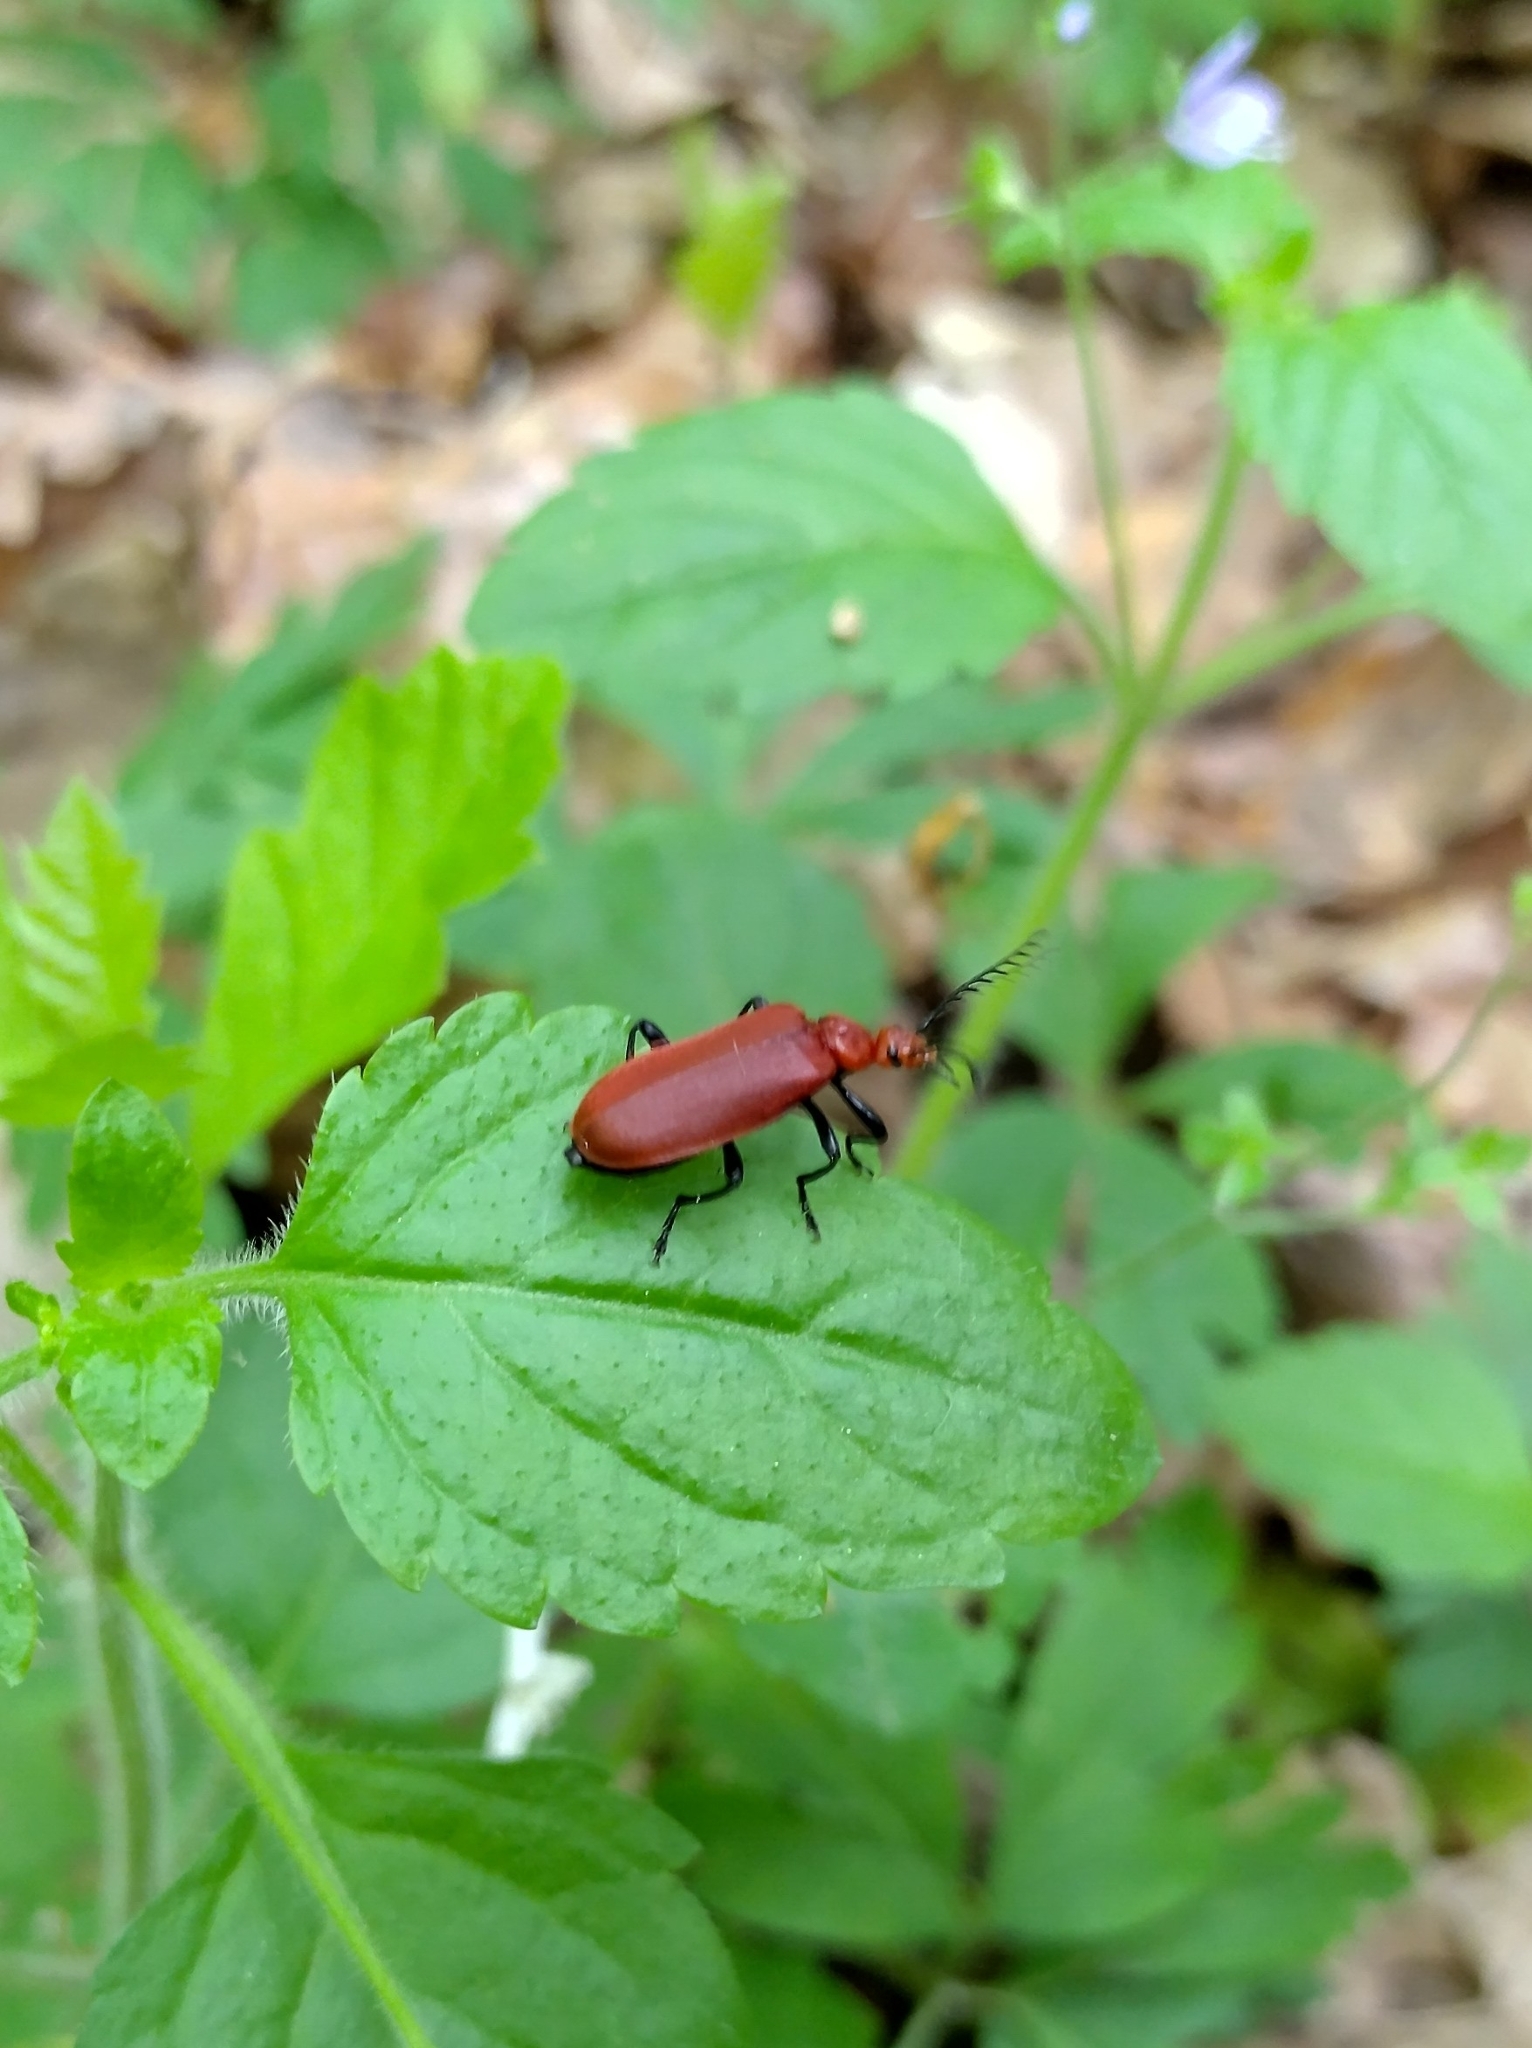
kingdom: Animalia
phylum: Arthropoda
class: Insecta
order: Coleoptera
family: Pyrochroidae
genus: Pyrochroa
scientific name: Pyrochroa serraticornis
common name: Red-headed cardinal beetle
